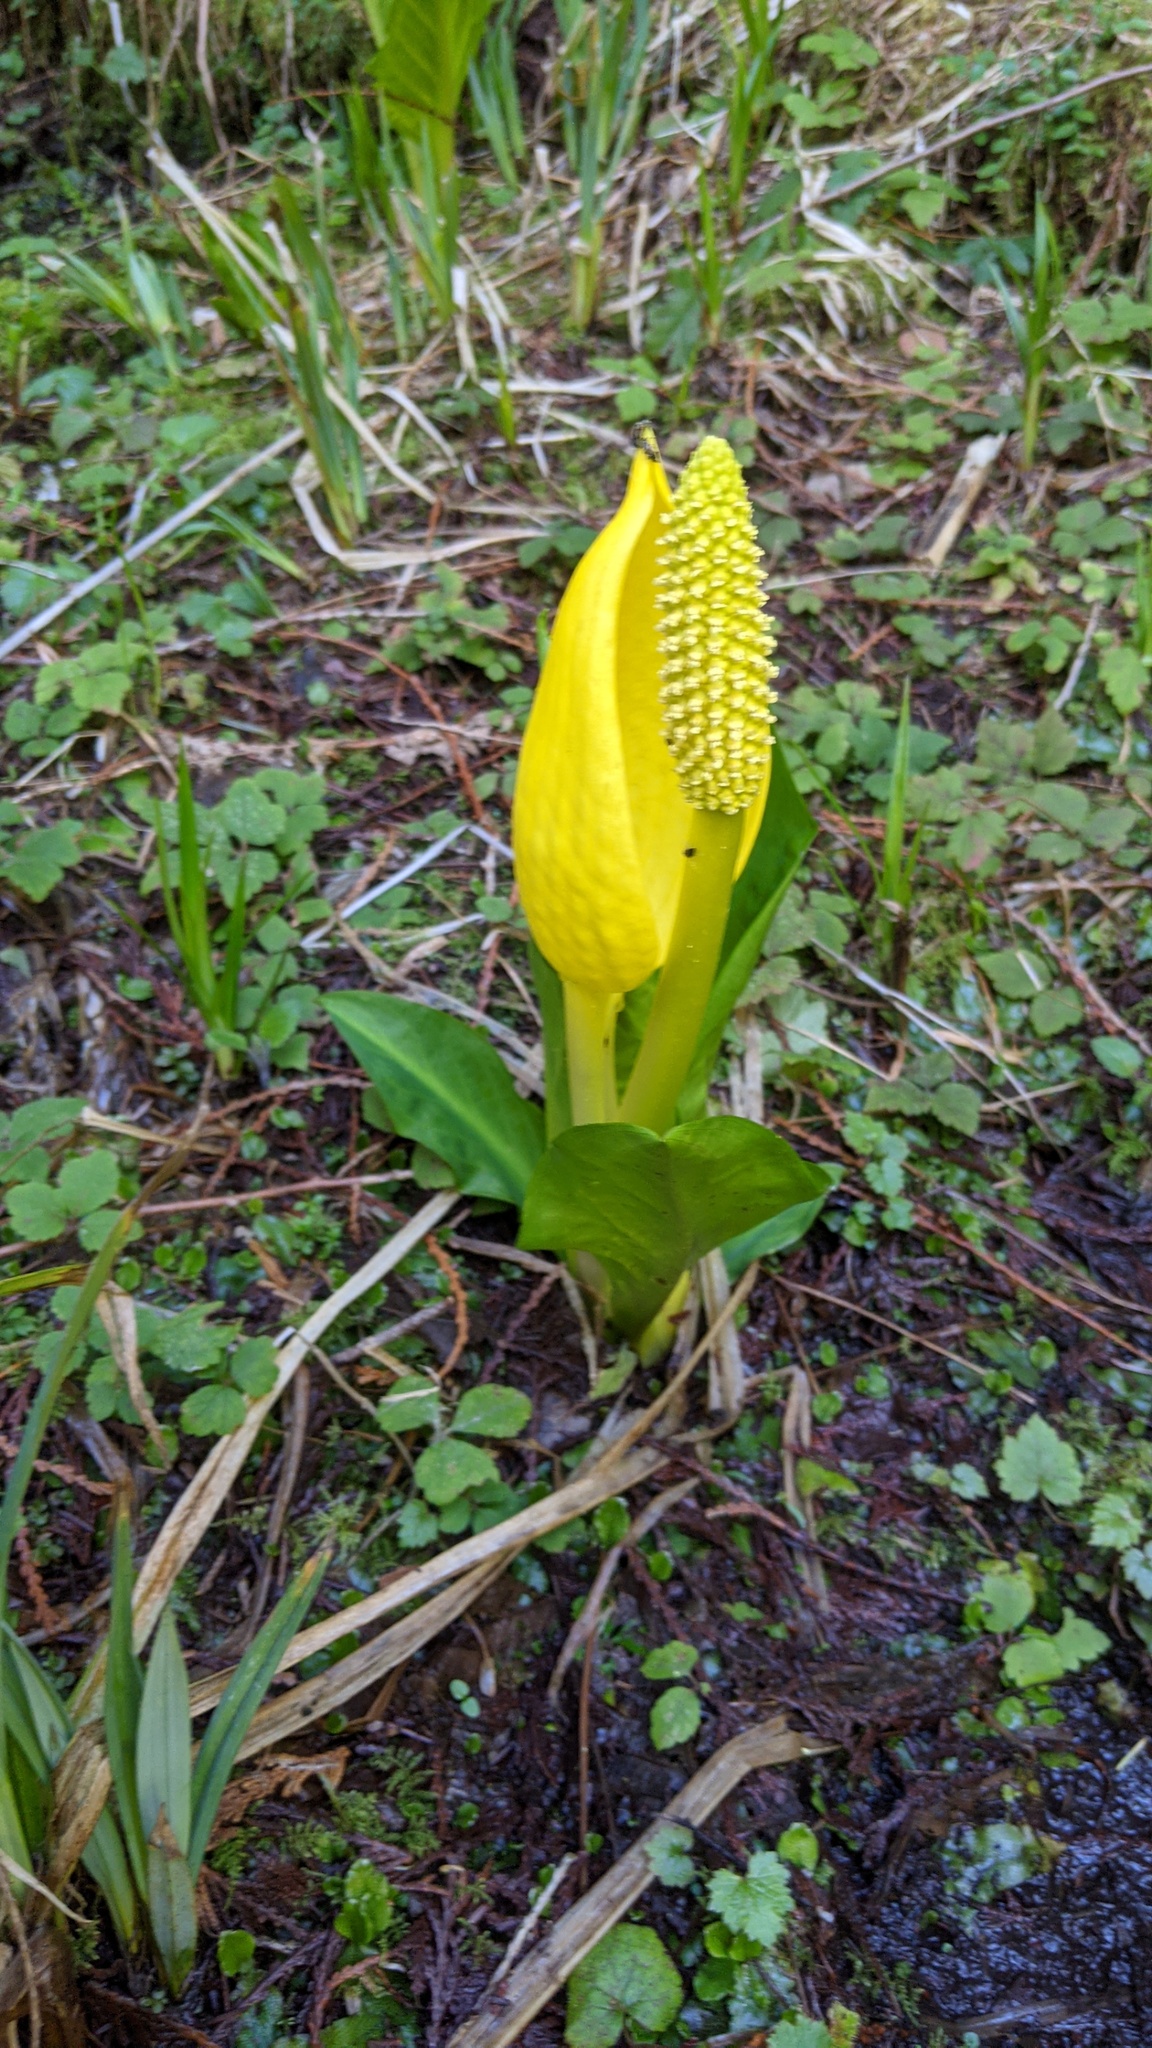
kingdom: Plantae
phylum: Tracheophyta
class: Liliopsida
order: Alismatales
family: Araceae
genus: Lysichiton
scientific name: Lysichiton americanus
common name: American skunk cabbage
